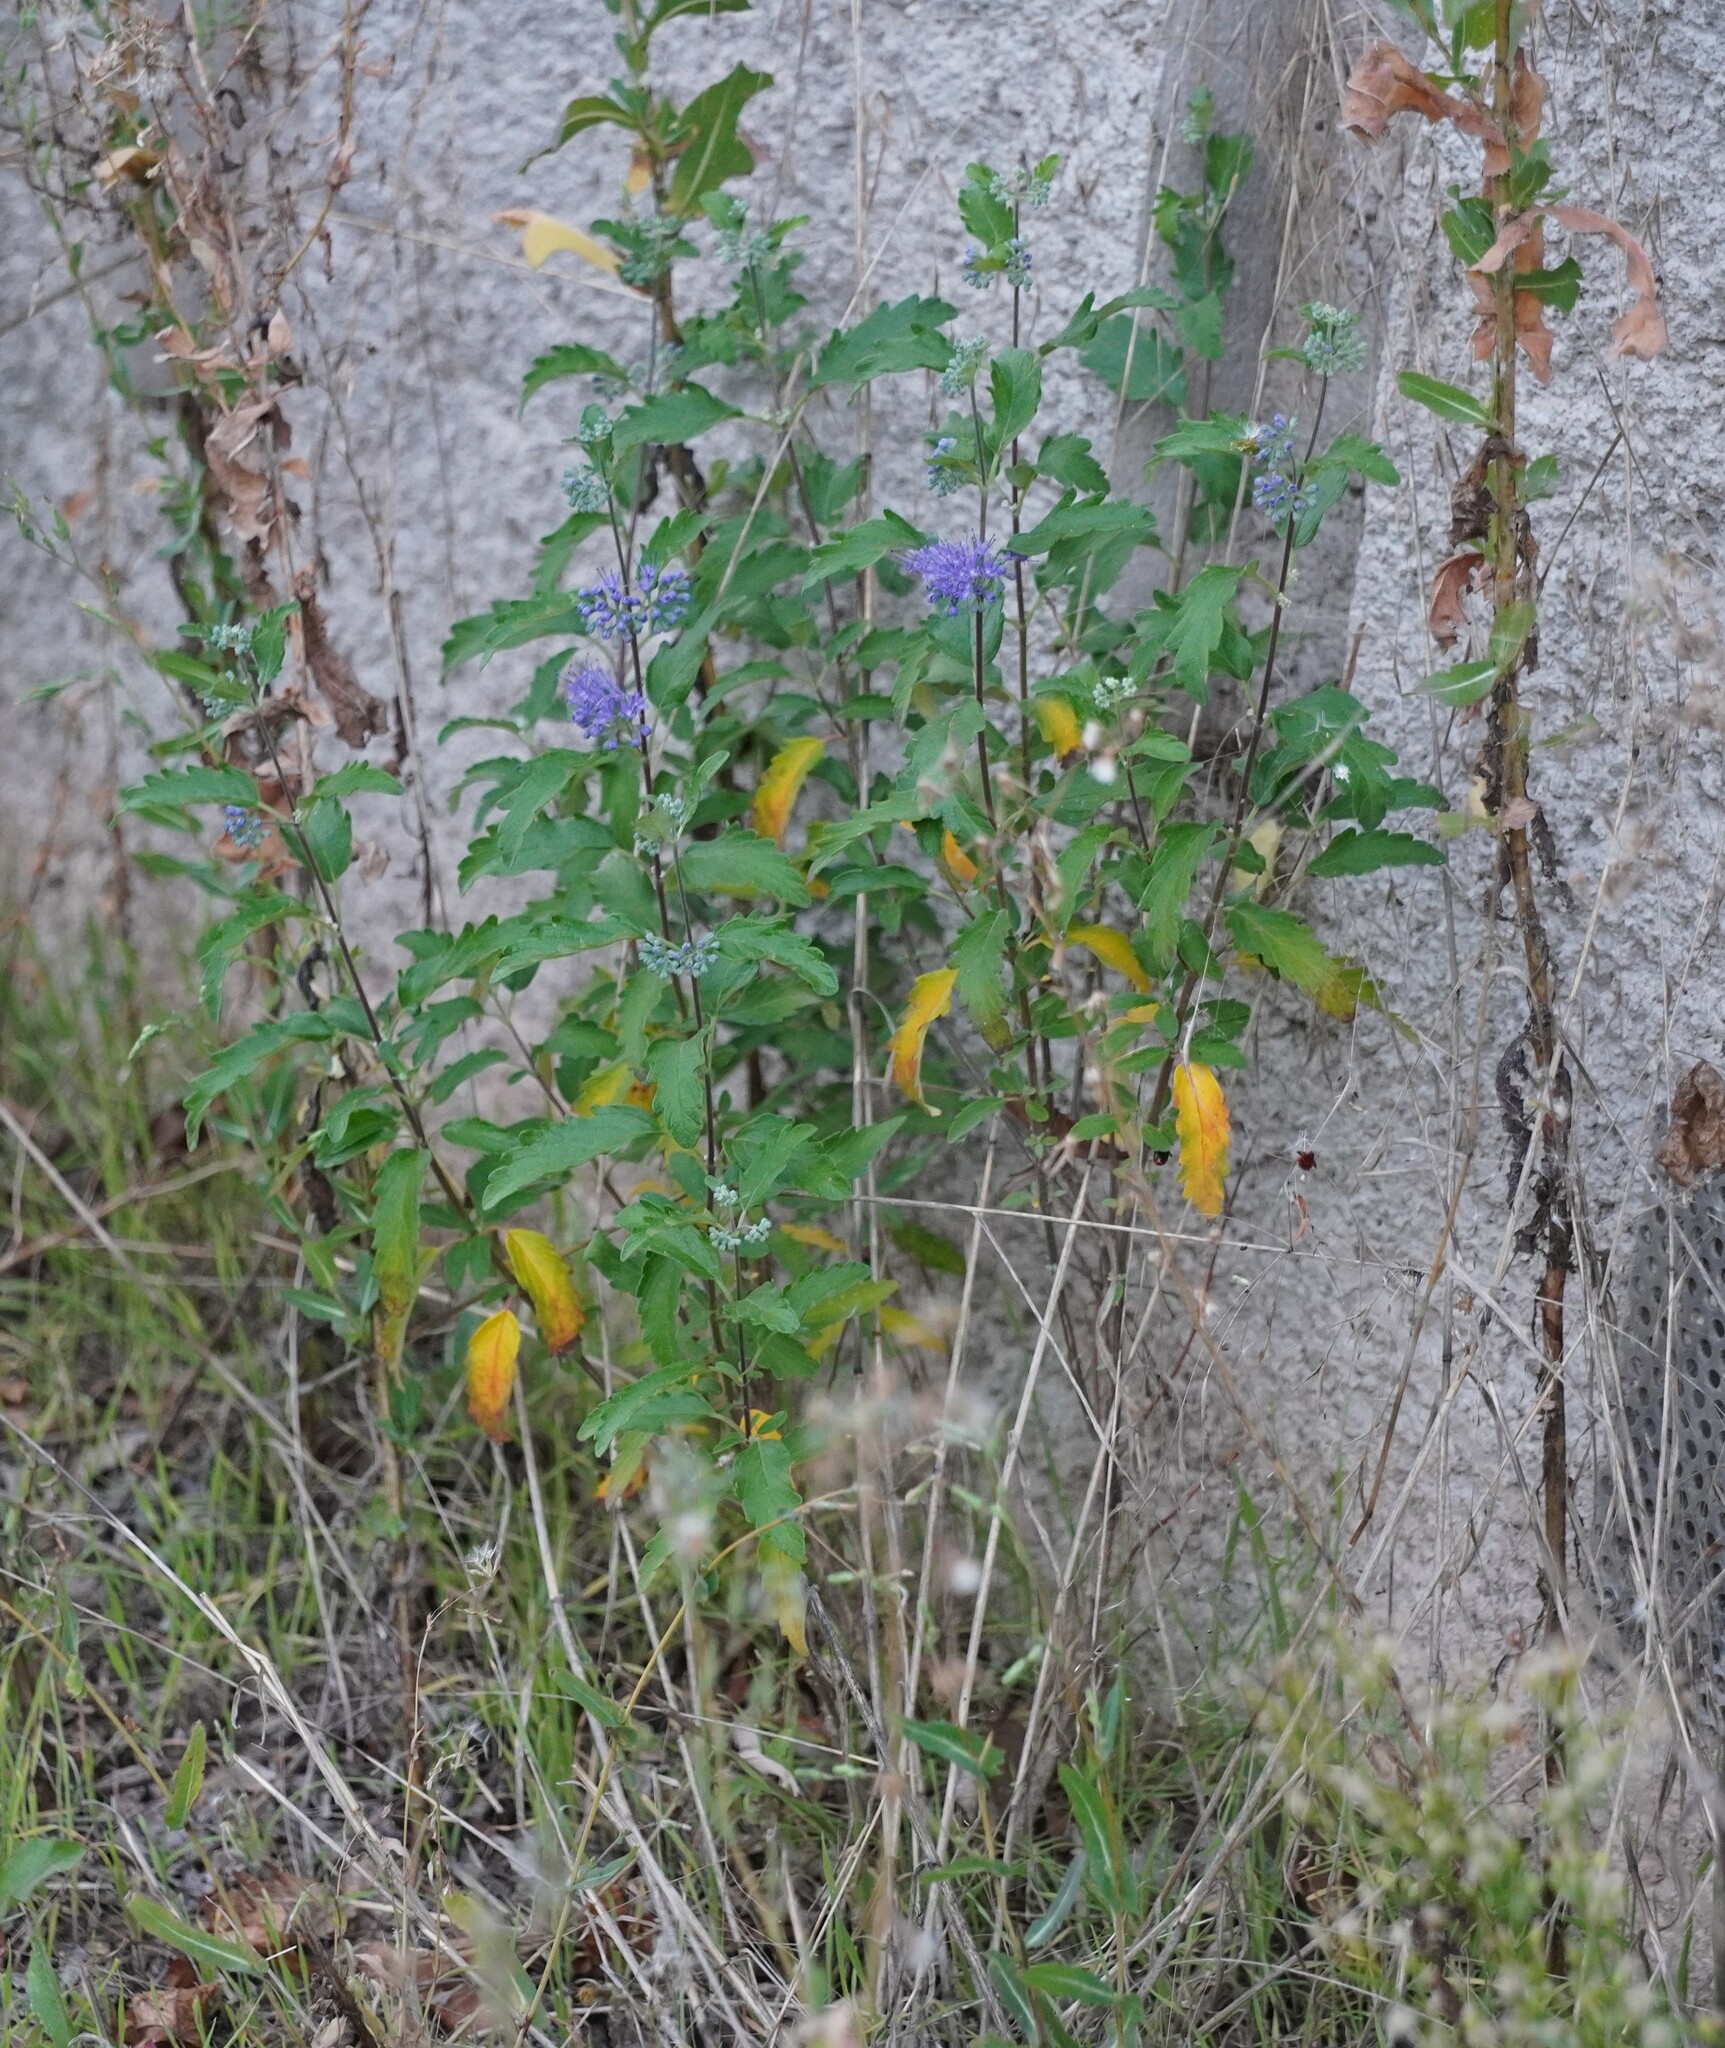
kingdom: Plantae
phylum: Tracheophyta
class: Magnoliopsida
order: Lamiales
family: Lamiaceae
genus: Caryopteris
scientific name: Caryopteris clandonensis
